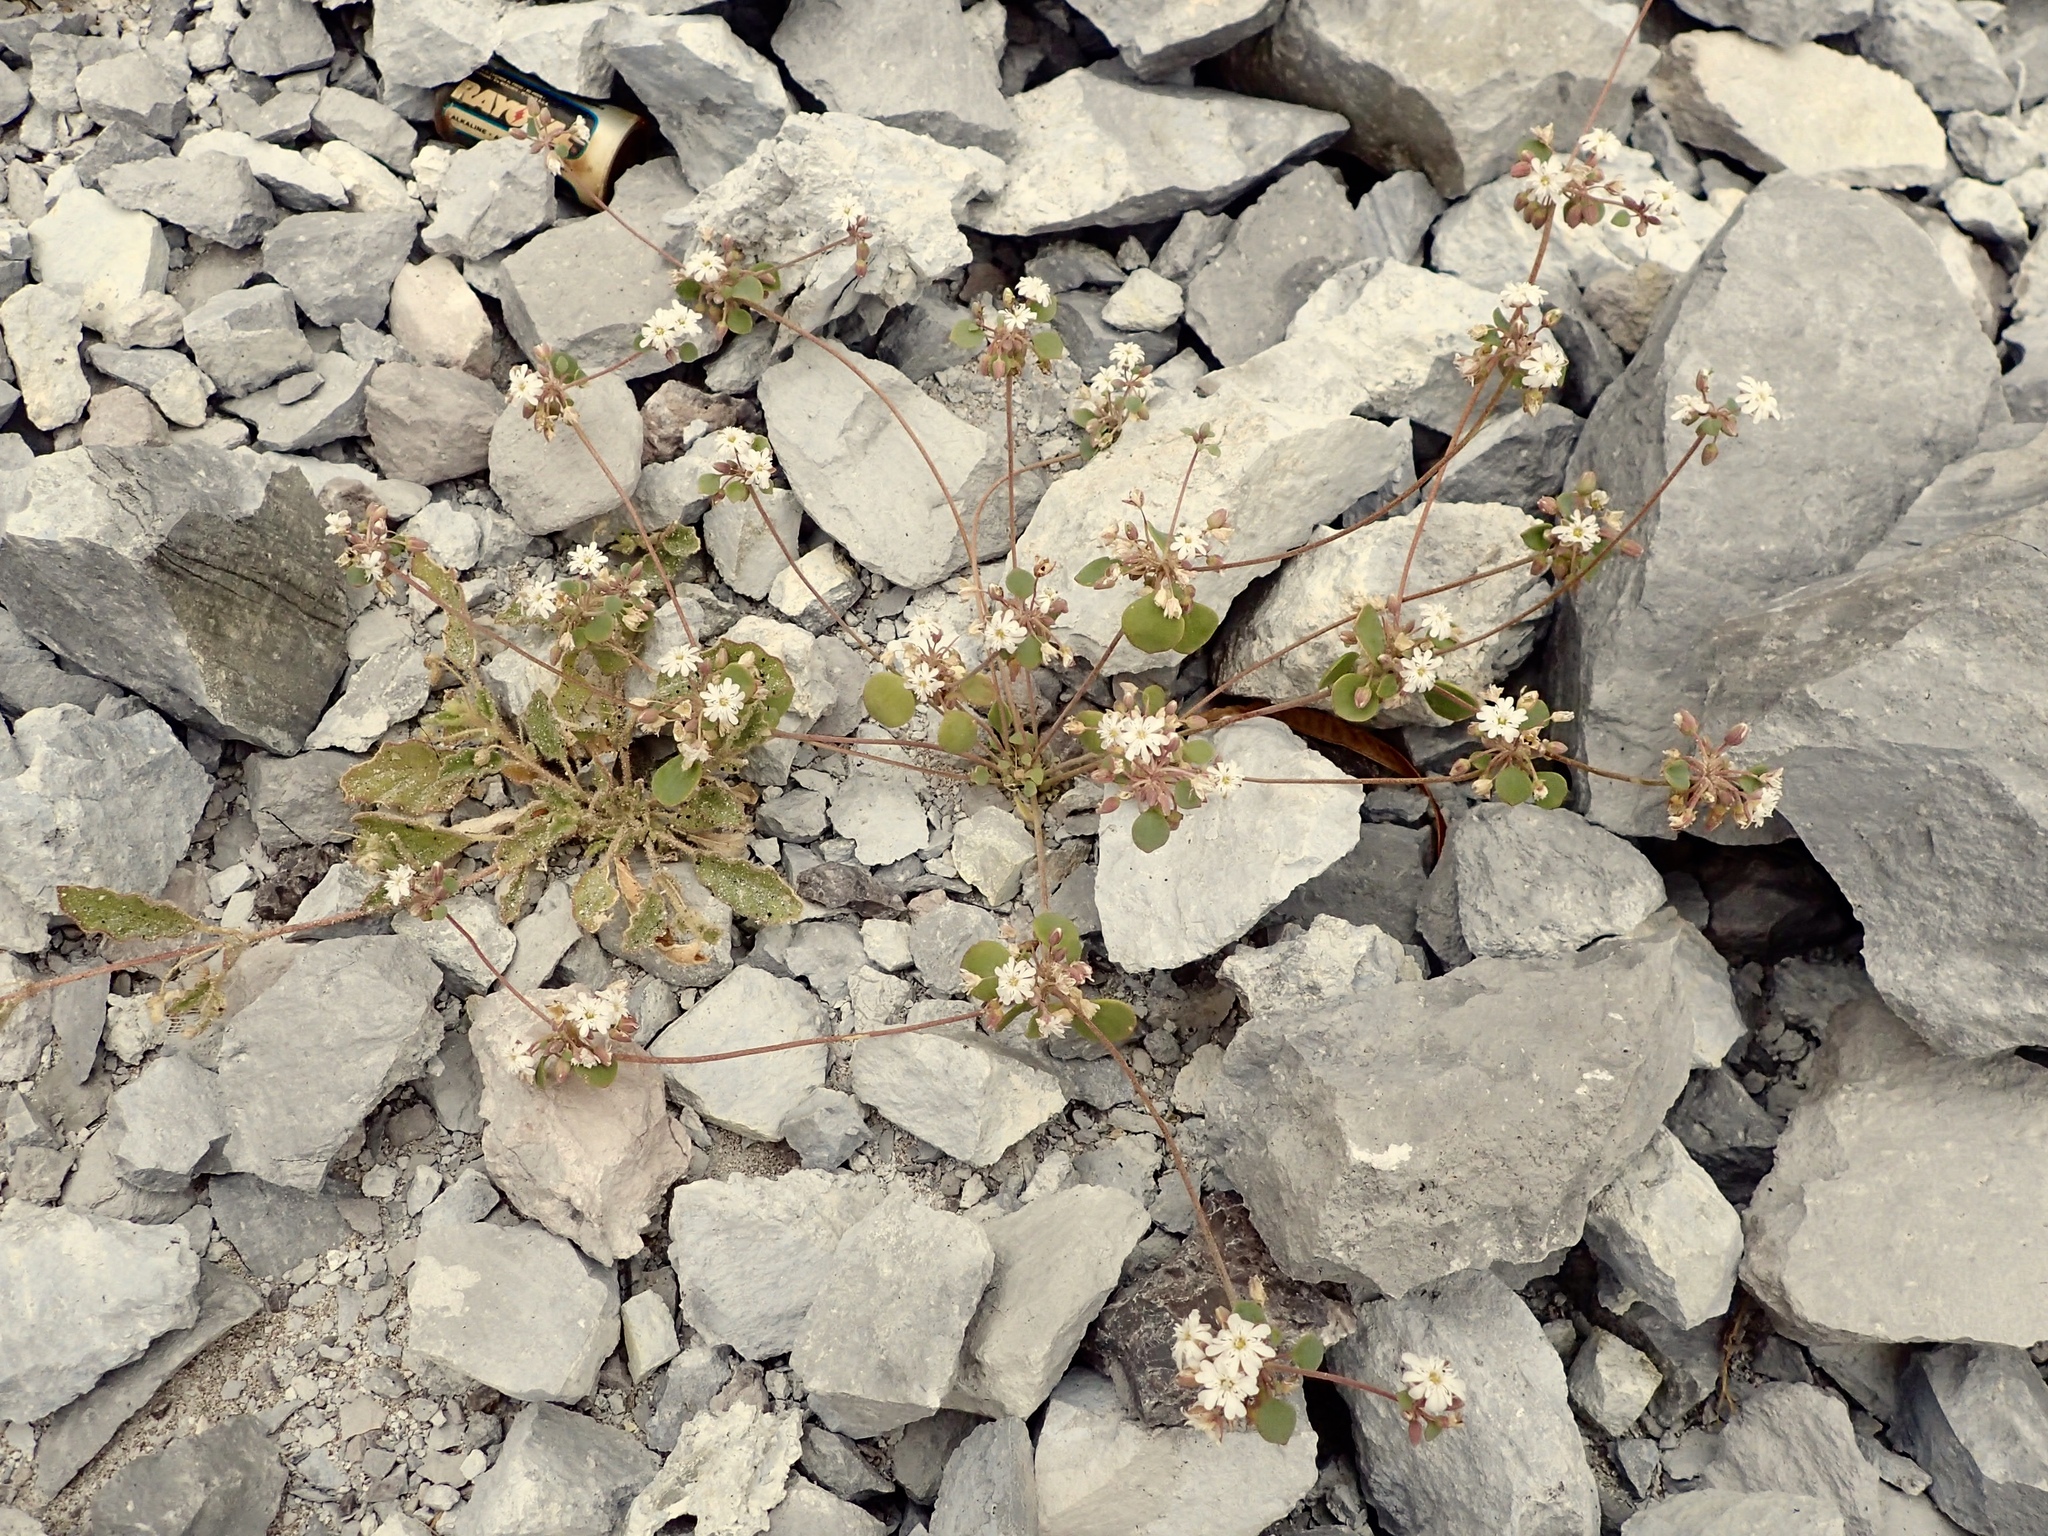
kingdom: Plantae
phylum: Tracheophyta
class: Magnoliopsida
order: Caryophyllales
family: Caryophyllaceae
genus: Drymaria
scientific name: Drymaria holosteoides
